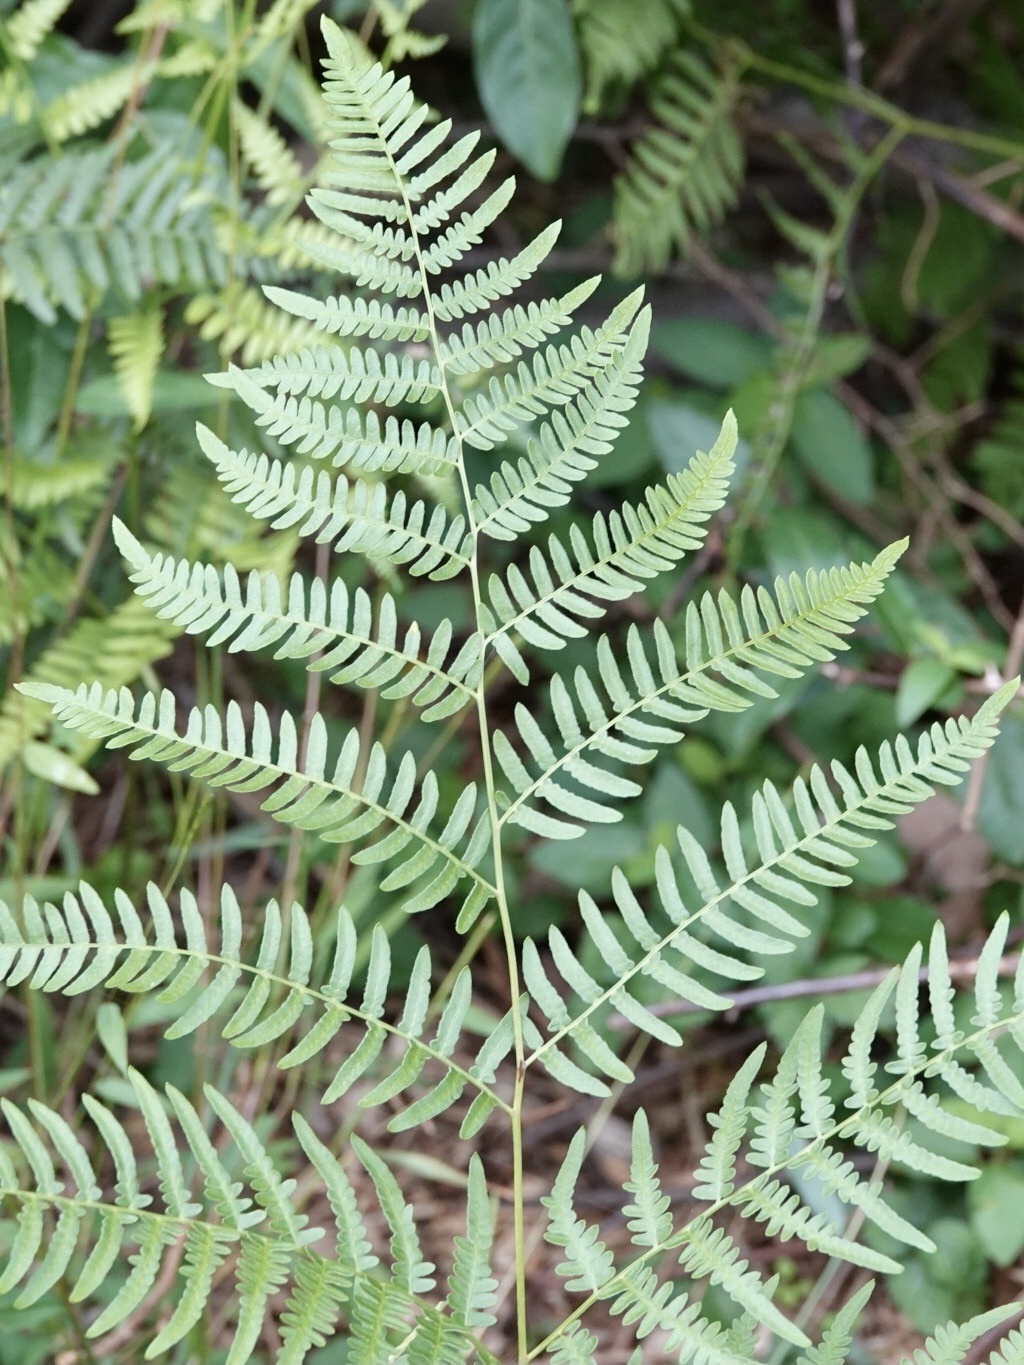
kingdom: Plantae
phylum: Tracheophyta
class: Polypodiopsida
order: Polypodiales
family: Dennstaedtiaceae
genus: Pteridium
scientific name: Pteridium aquilinum
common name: Bracken
